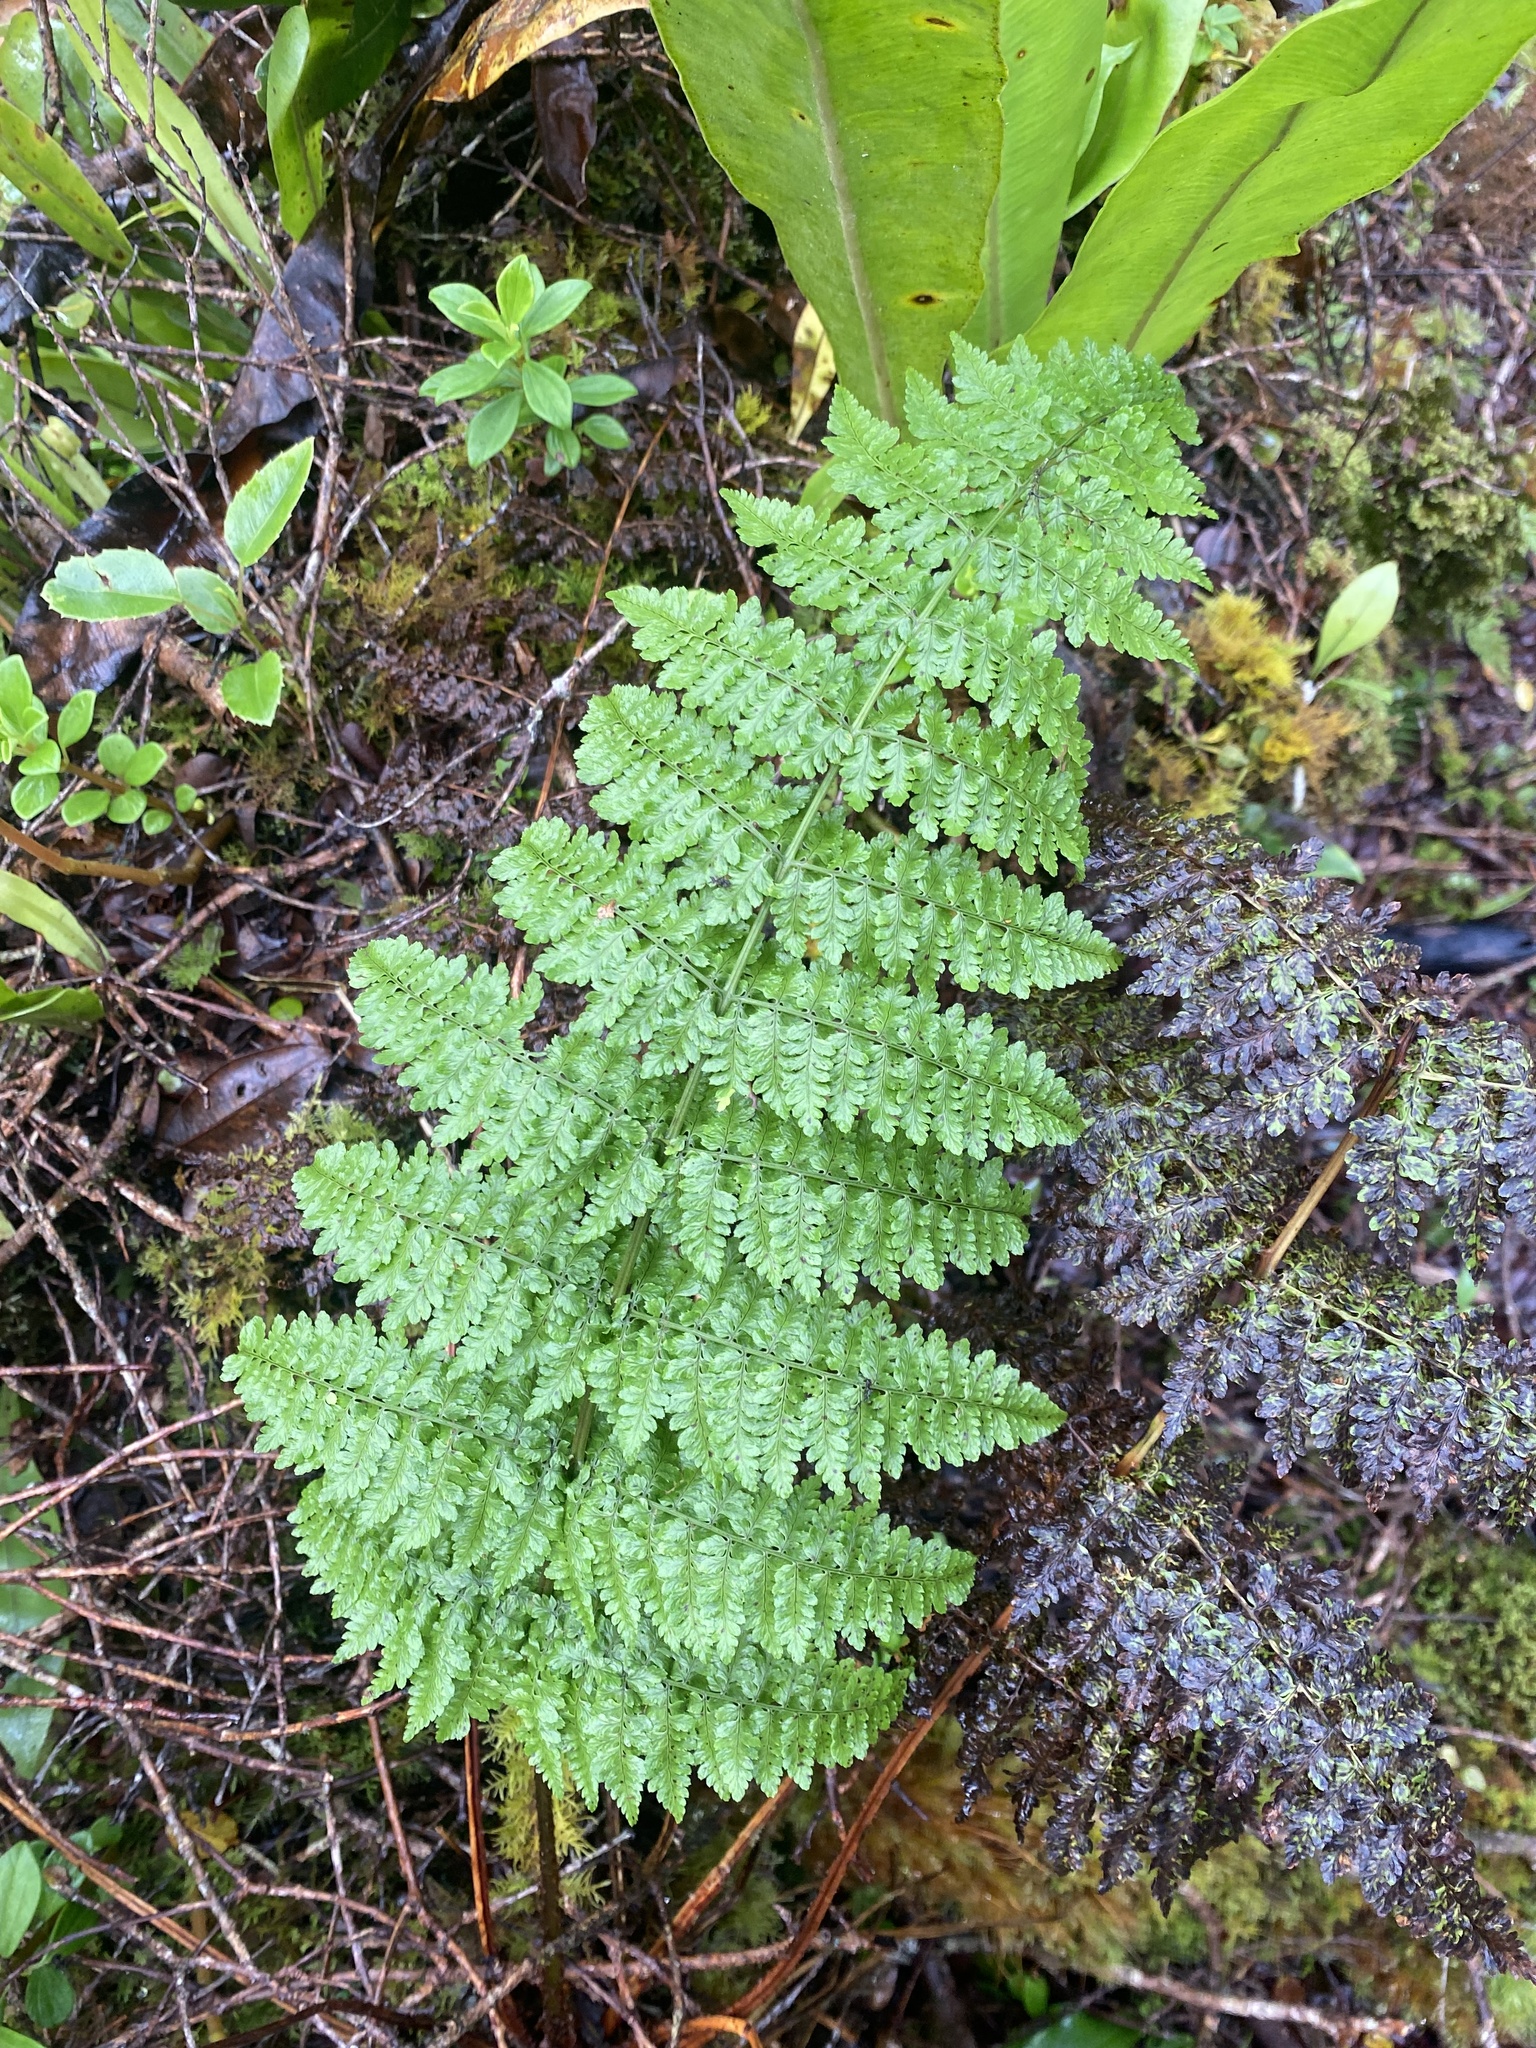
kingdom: Plantae
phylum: Tracheophyta
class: Polypodiopsida
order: Polypodiales
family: Dryopteridaceae
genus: Dryopteris
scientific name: Dryopteris glabra
